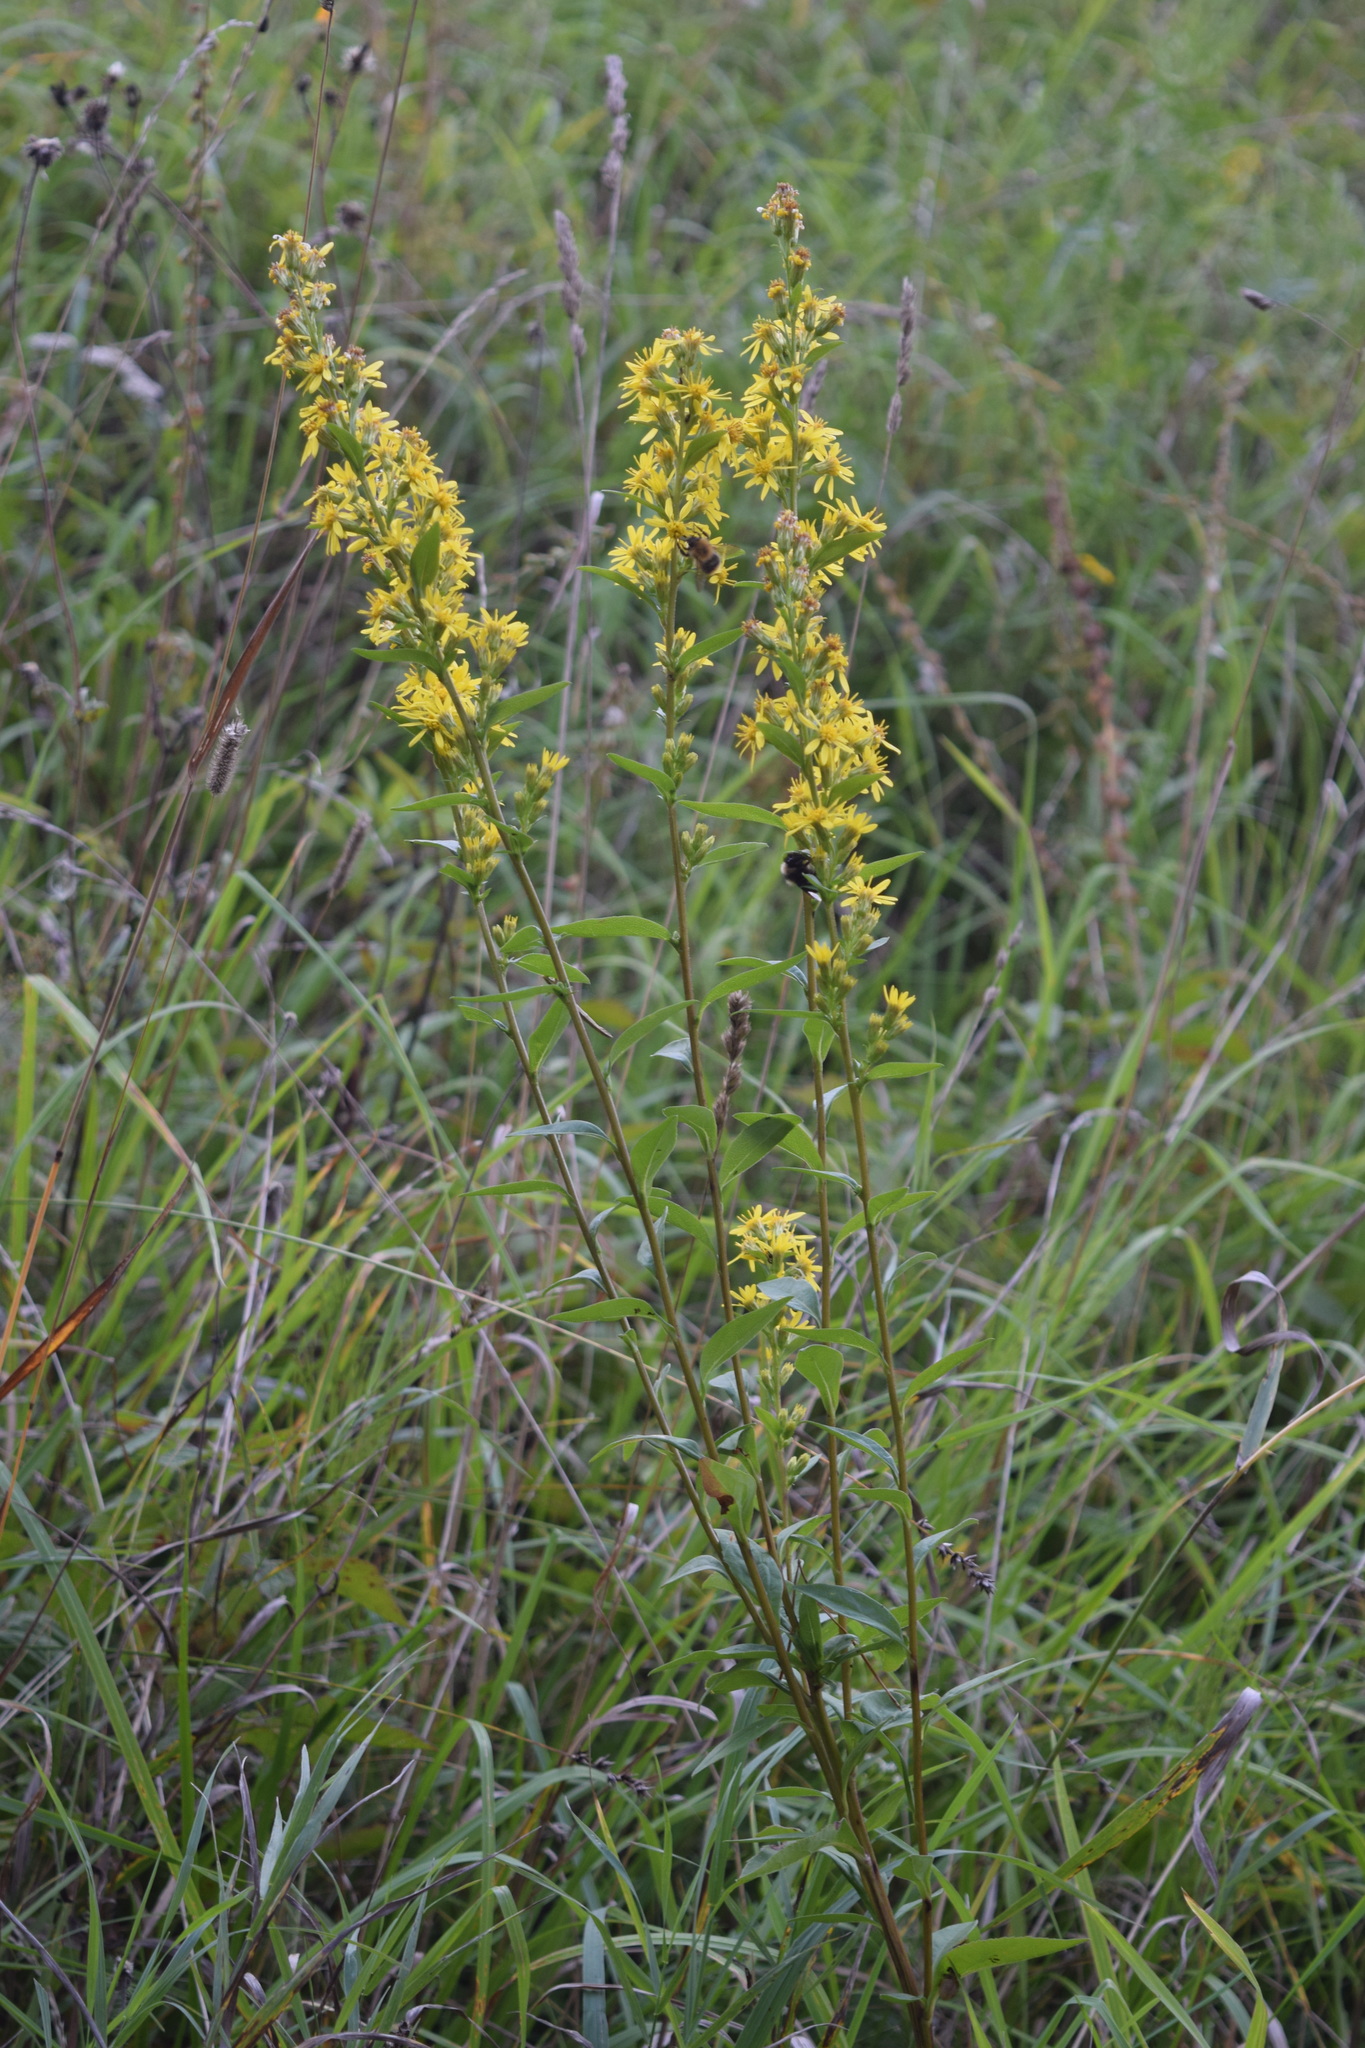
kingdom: Plantae
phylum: Tracheophyta
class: Magnoliopsida
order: Asterales
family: Asteraceae
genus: Solidago
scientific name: Solidago virgaurea
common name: Goldenrod
